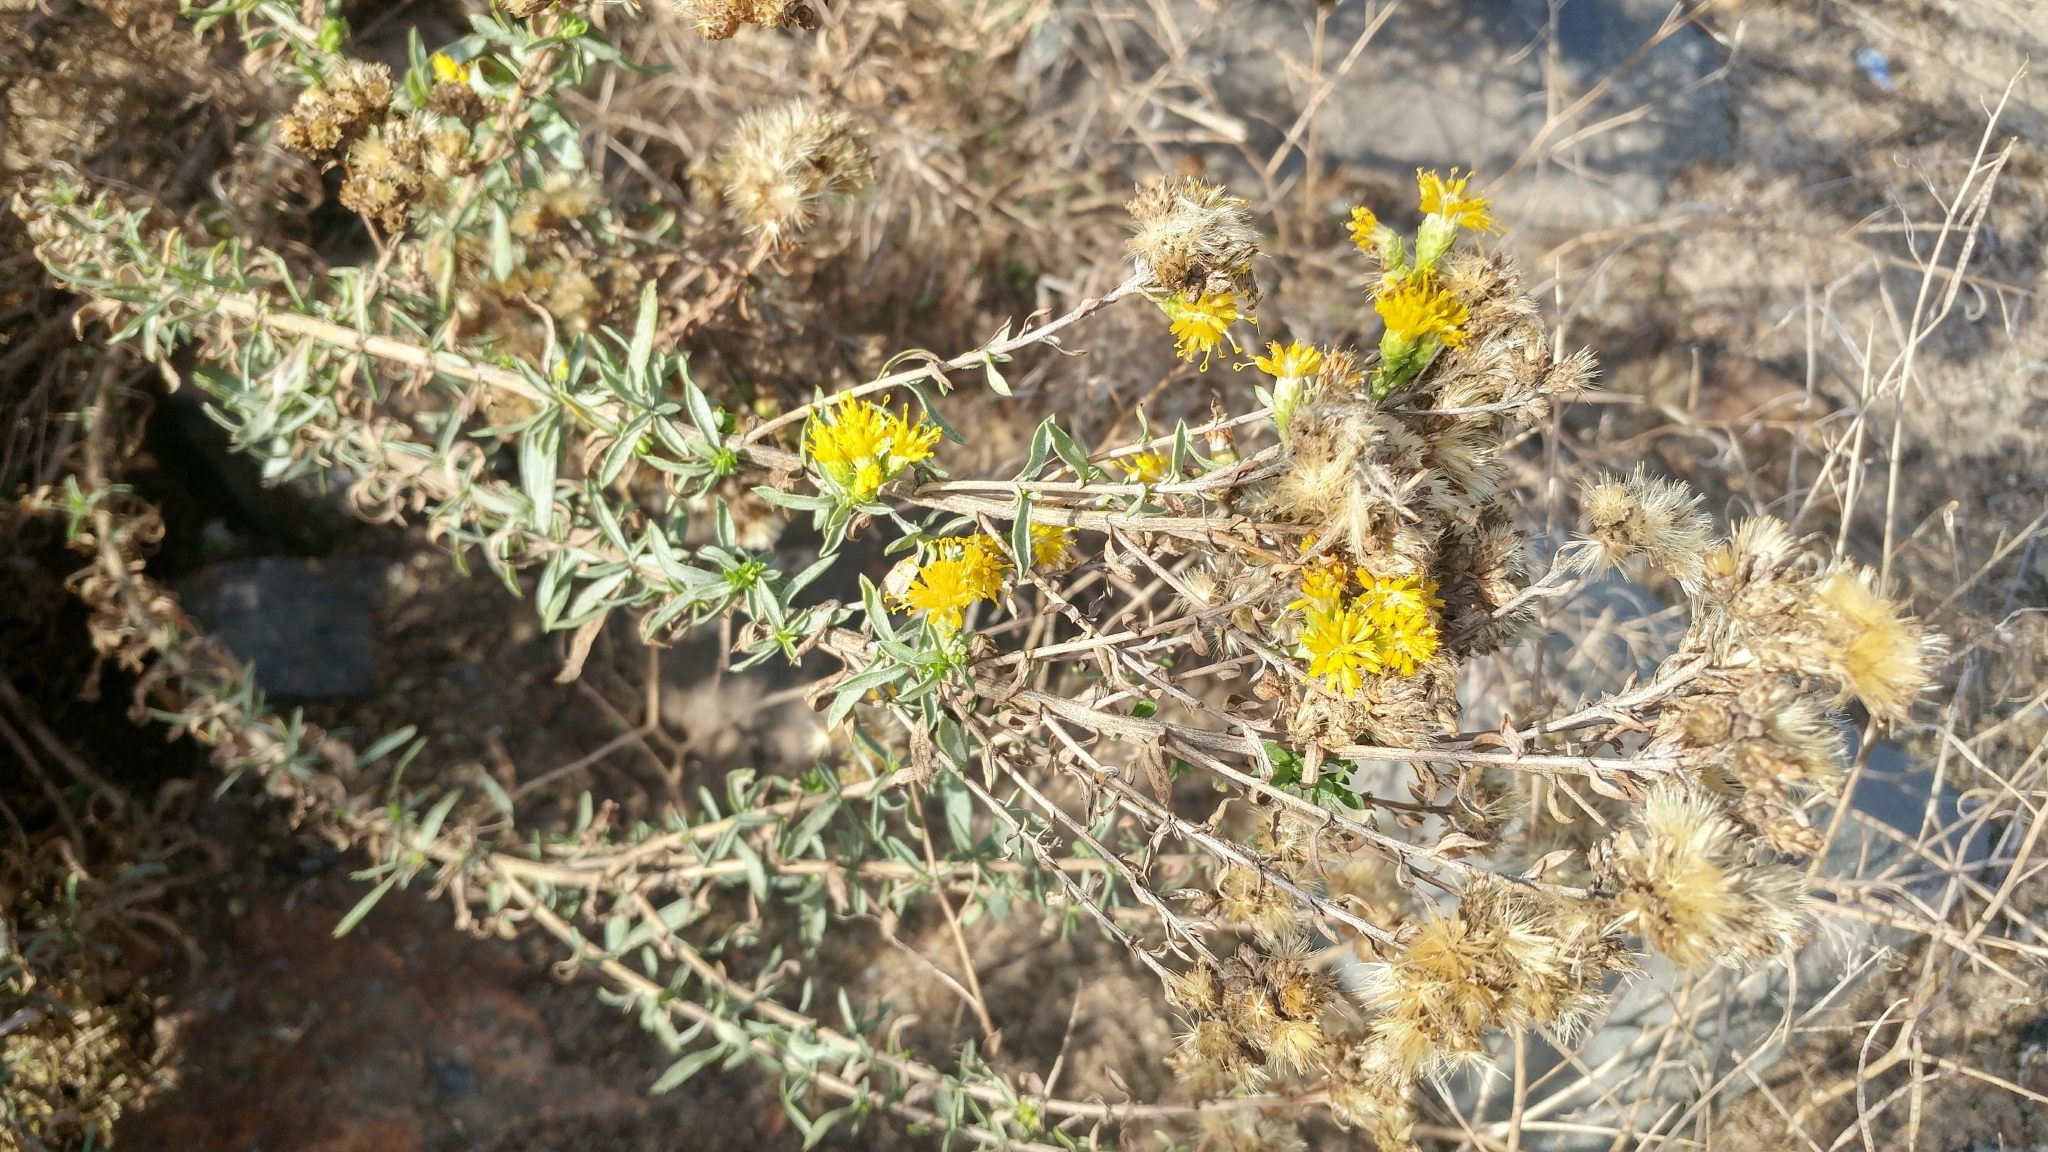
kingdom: Plantae
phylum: Tracheophyta
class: Magnoliopsida
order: Asterales
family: Asteraceae
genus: Isocoma
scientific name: Isocoma menziesii
